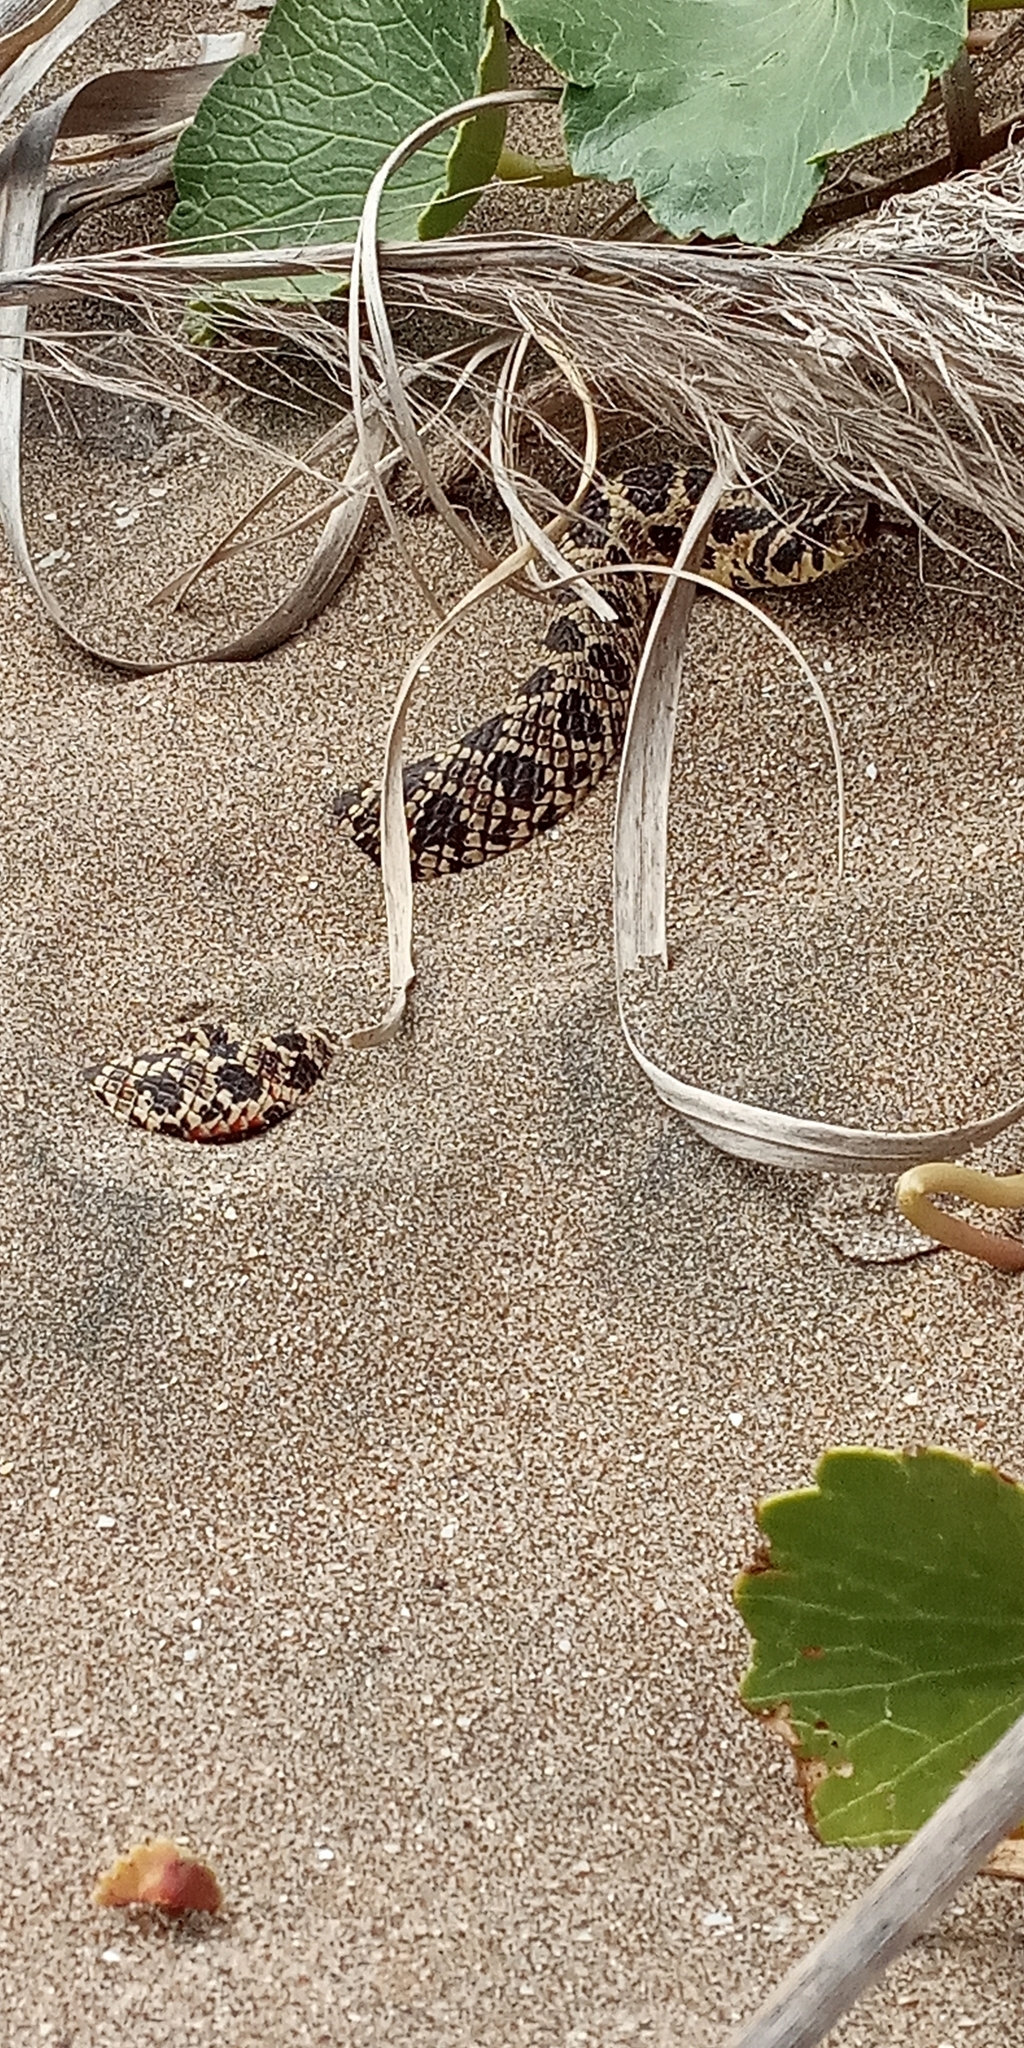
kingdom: Animalia
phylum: Chordata
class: Squamata
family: Colubridae
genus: Xenodon
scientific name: Xenodon dorbignyi
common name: South american hognose snake
